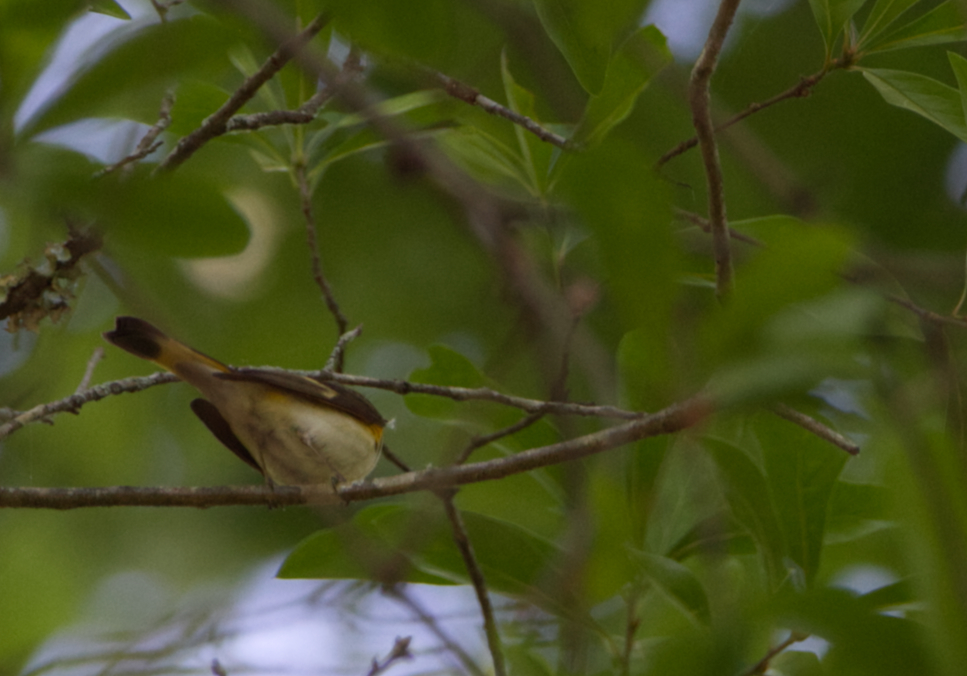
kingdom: Animalia
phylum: Chordata
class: Aves
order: Passeriformes
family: Parulidae
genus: Setophaga
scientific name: Setophaga ruticilla
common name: American redstart
